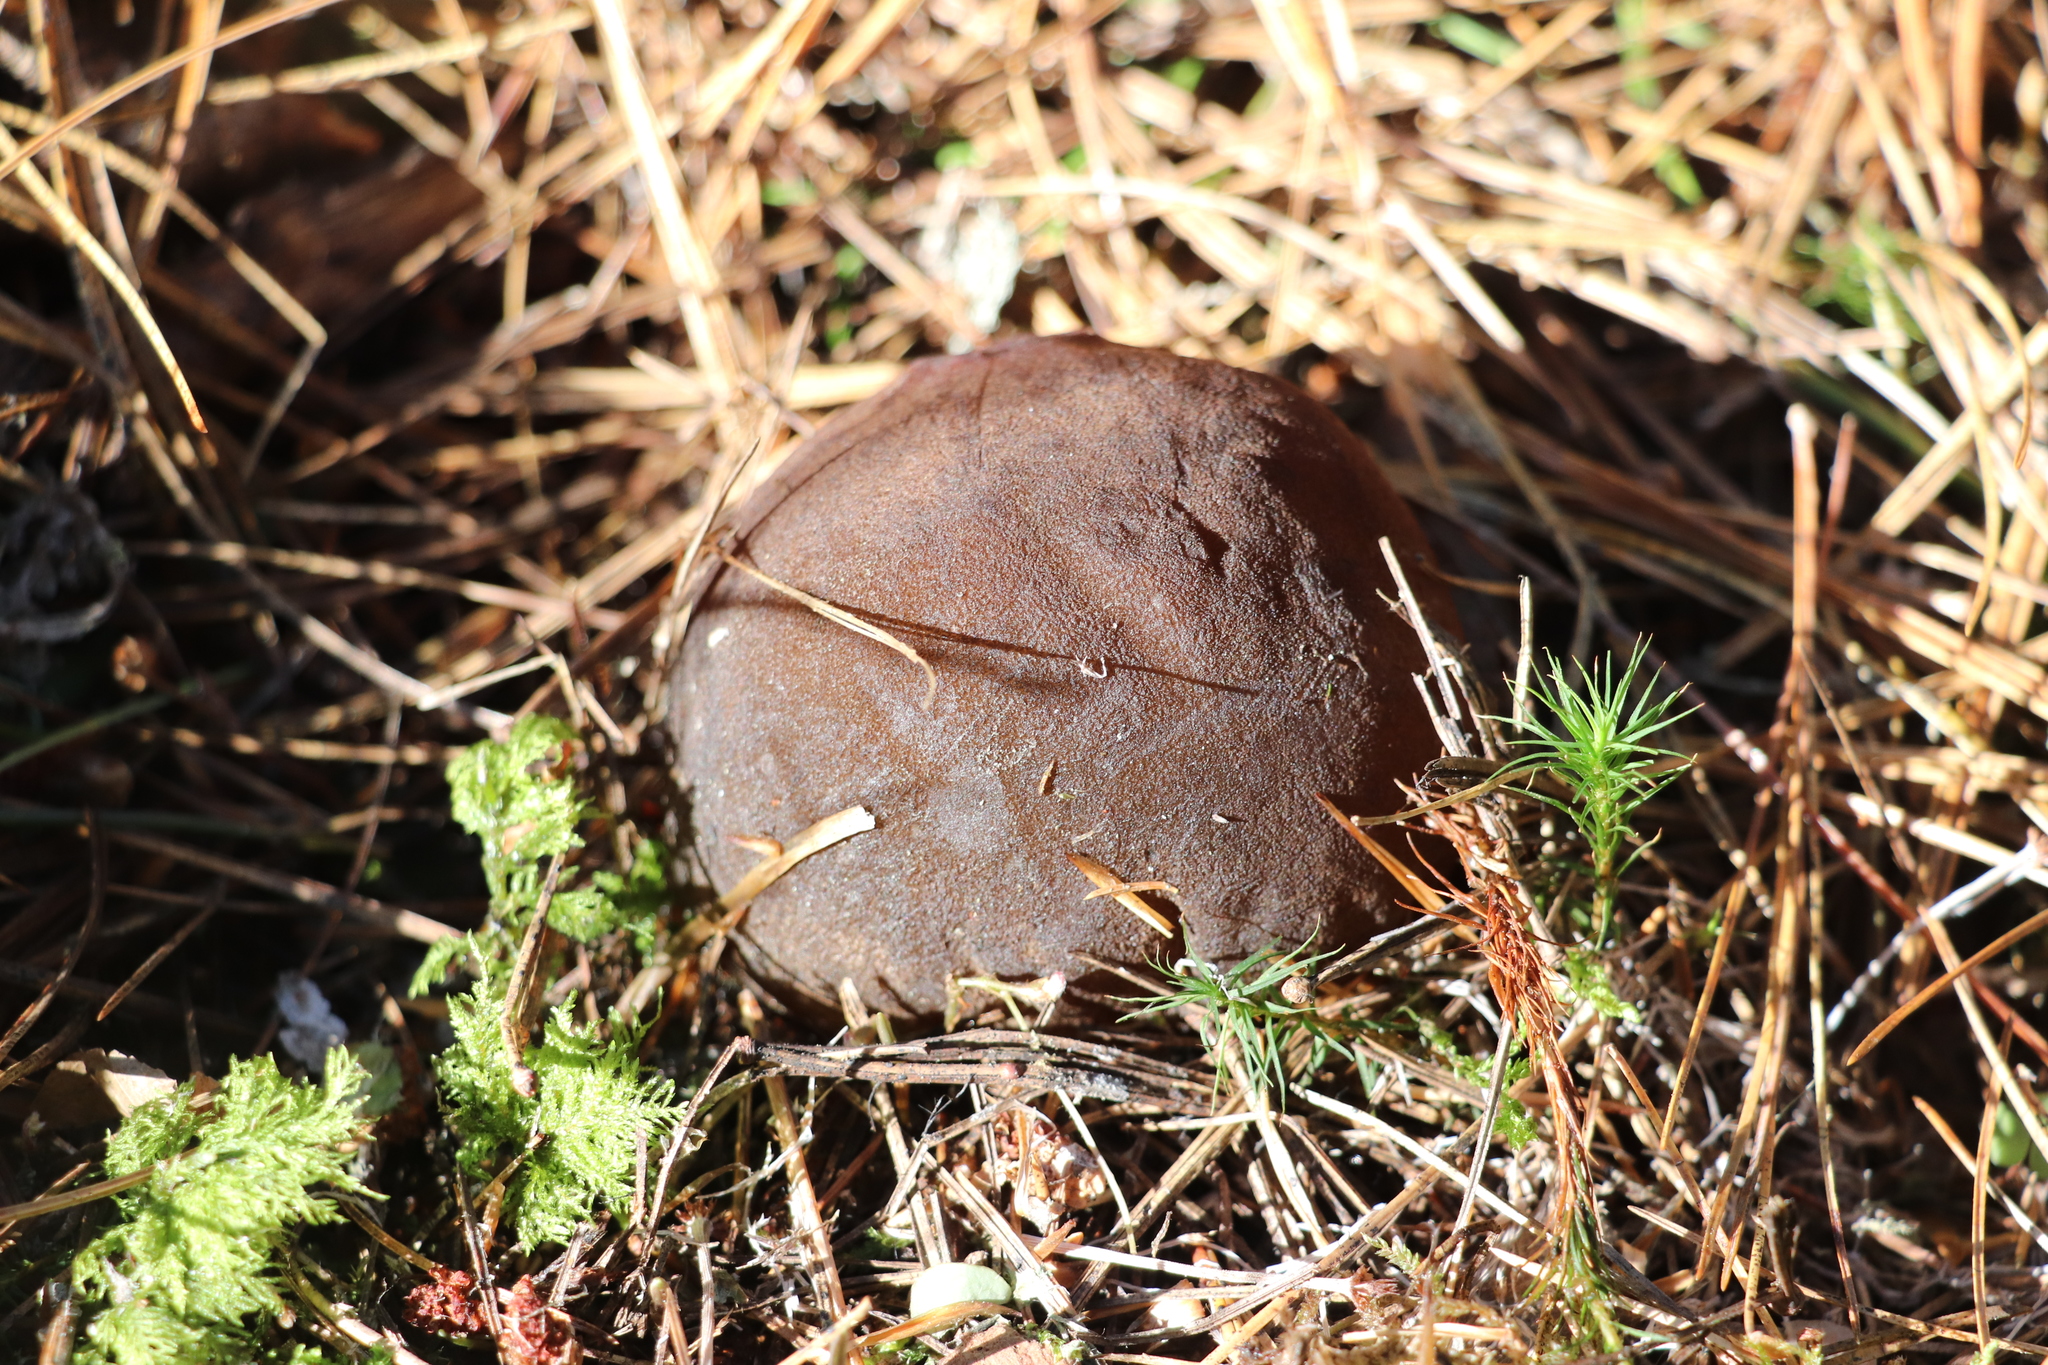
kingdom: Fungi
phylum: Ascomycota
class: Pezizomycetes
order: Pezizales
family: Sarcosomataceae
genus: Sarcosoma
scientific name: Sarcosoma globosum
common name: Charred-pancake cup
